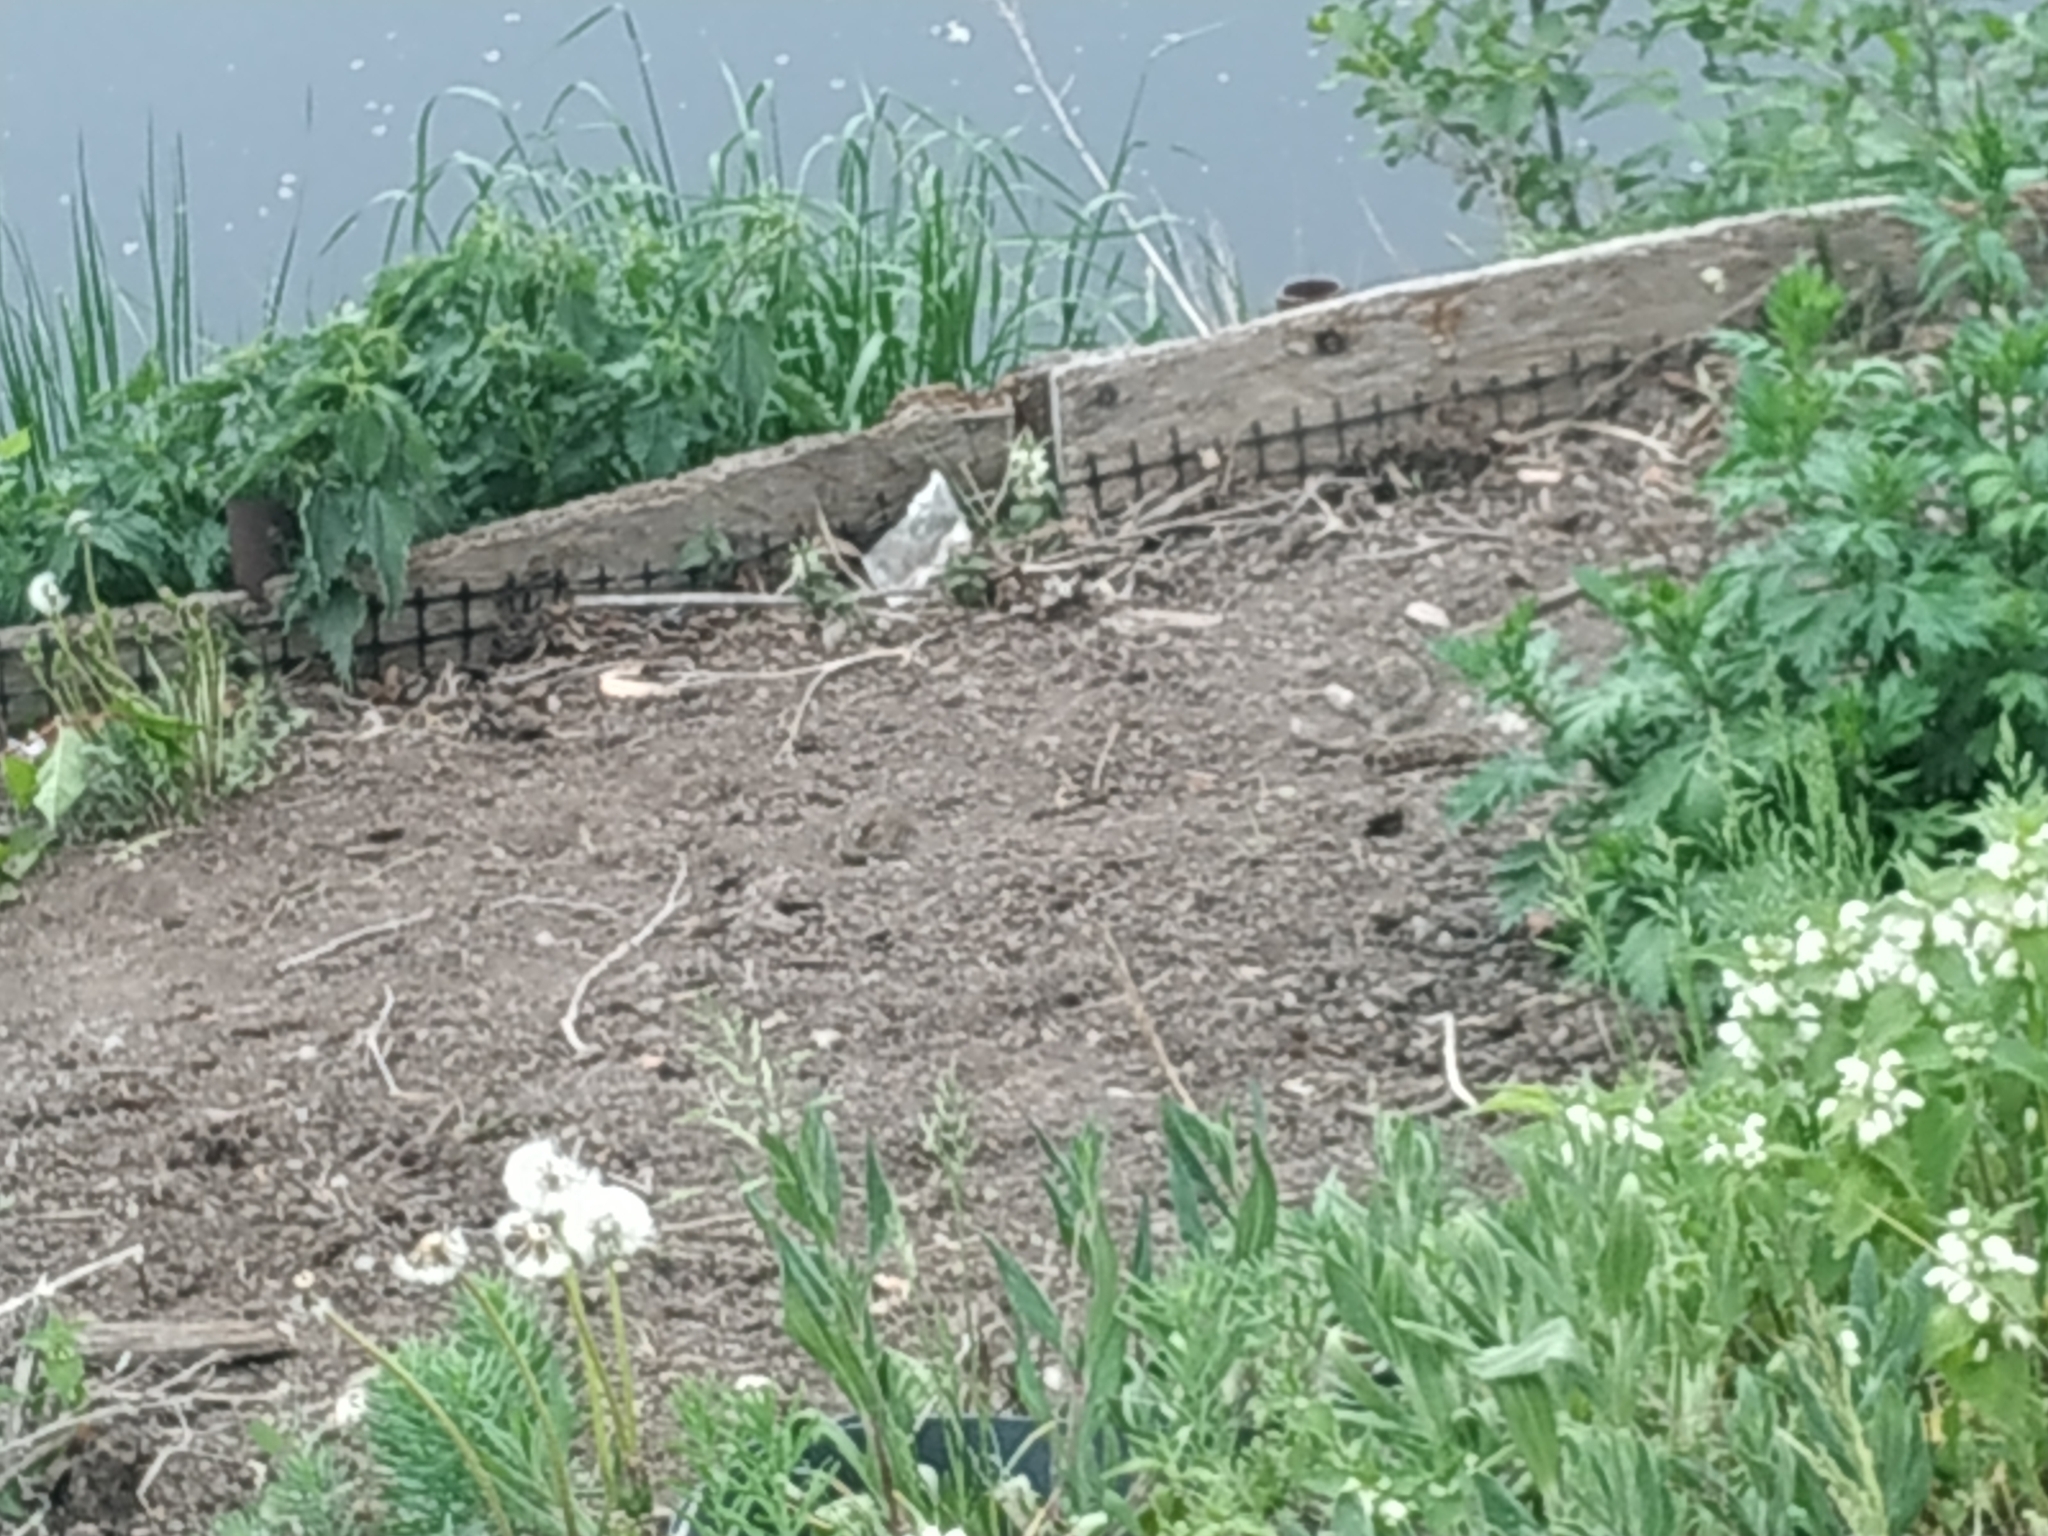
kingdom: Animalia
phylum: Chordata
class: Aves
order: Passeriformes
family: Passeridae
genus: Passer
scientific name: Passer domesticus
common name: House sparrow
